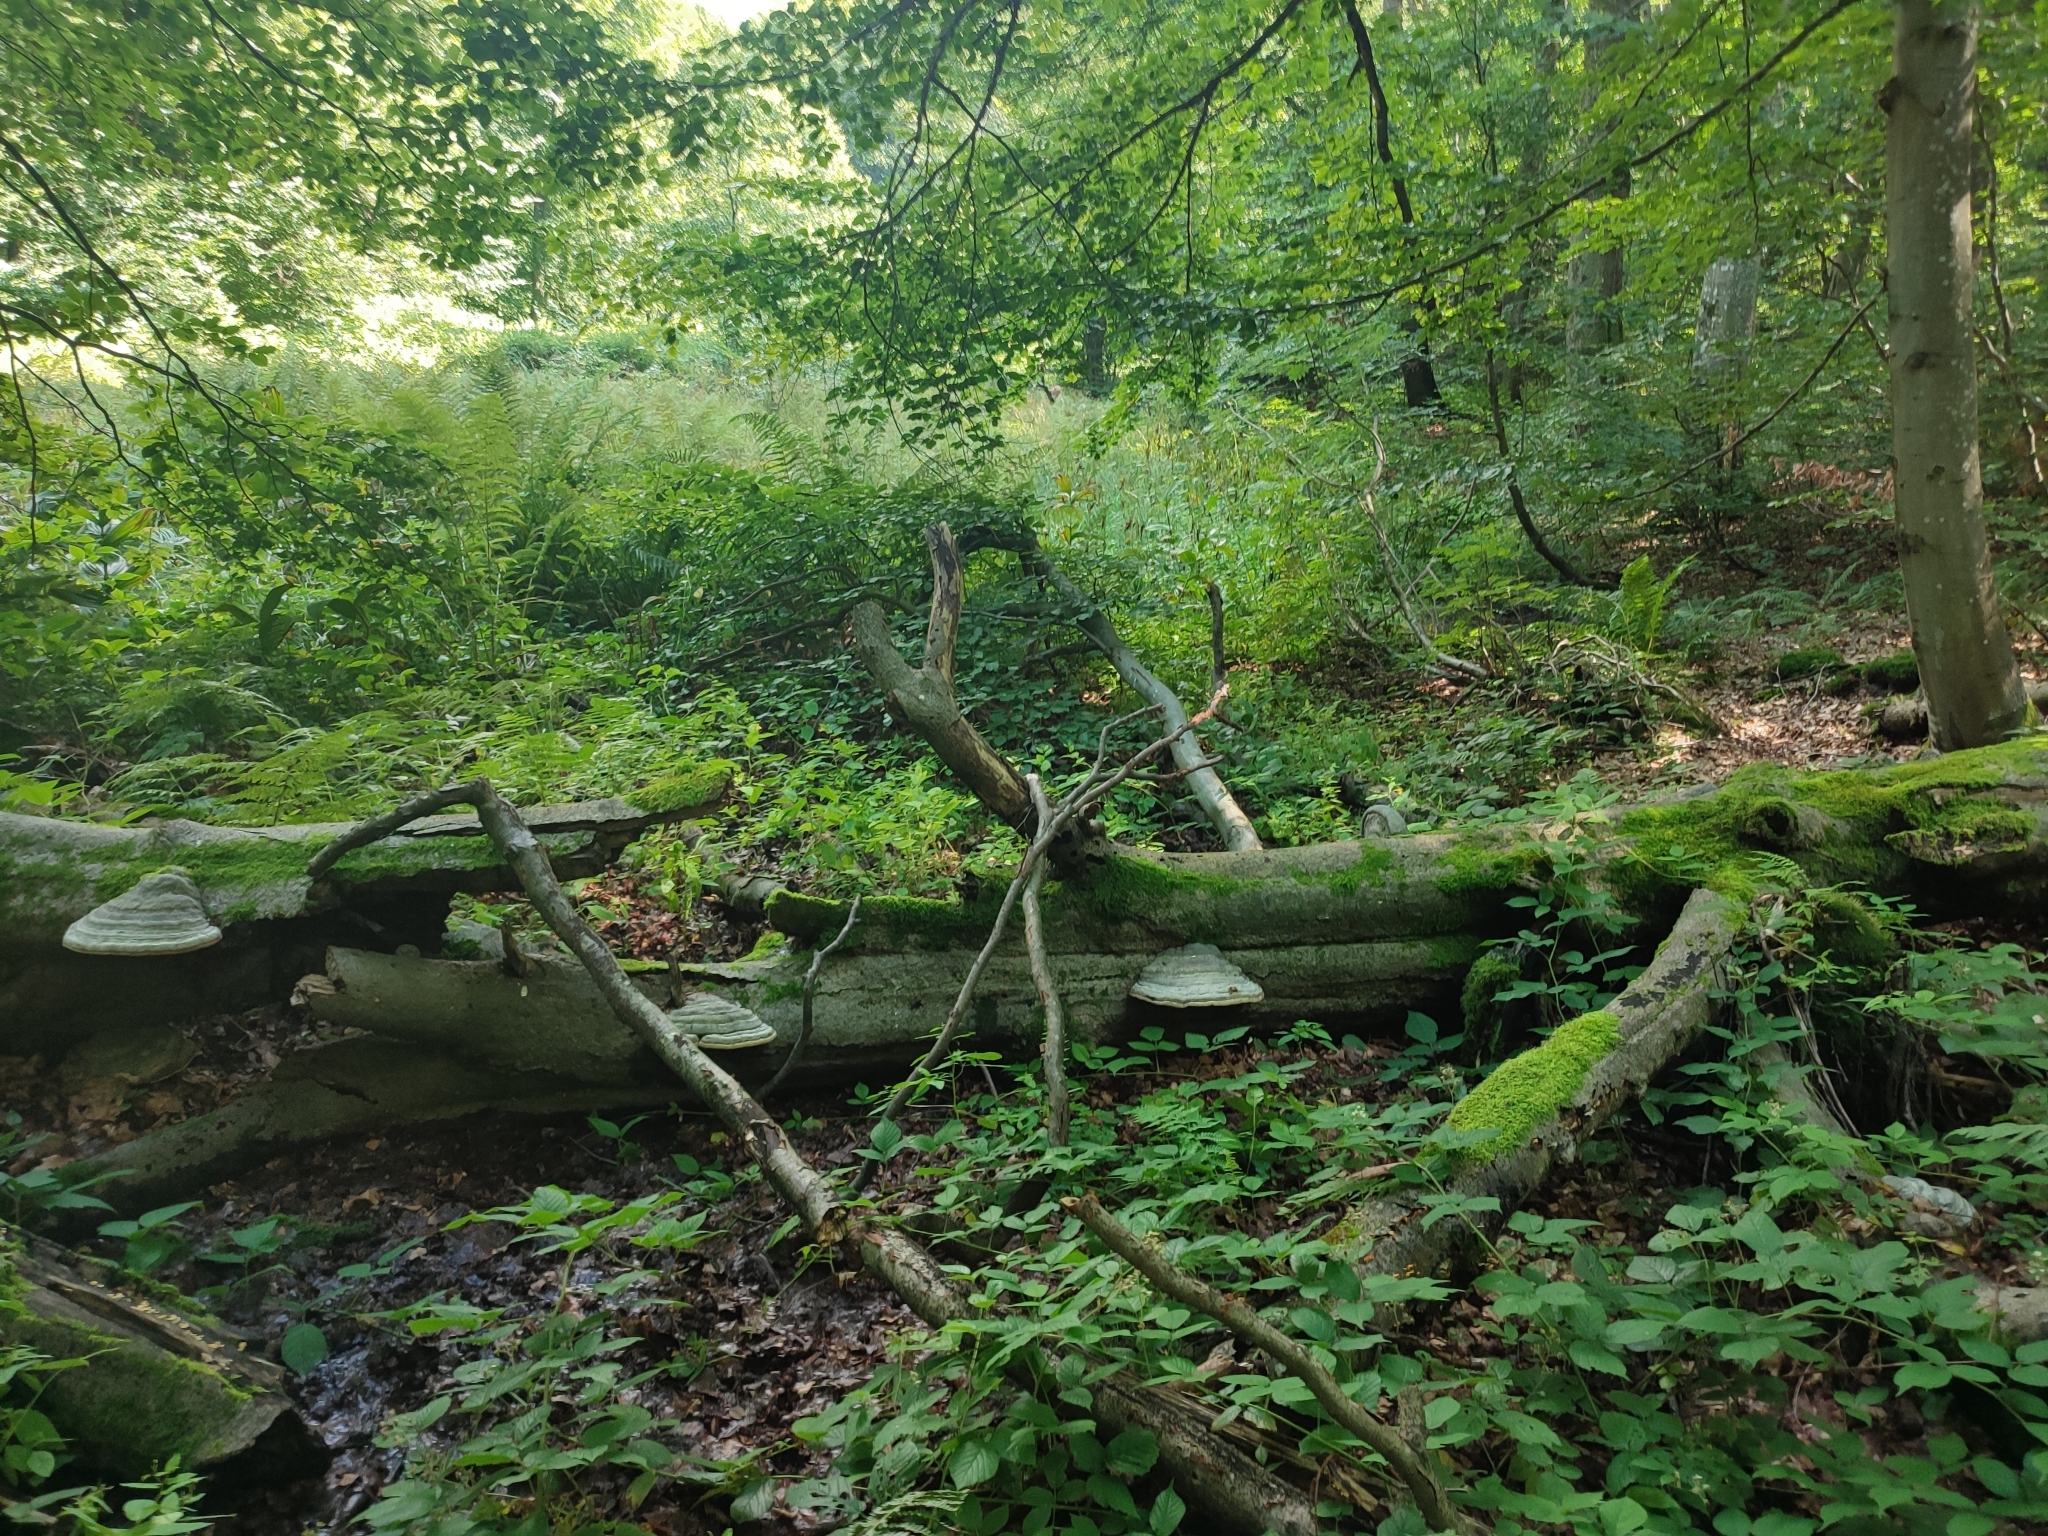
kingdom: Plantae
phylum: Tracheophyta
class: Magnoliopsida
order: Fagales
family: Fagaceae
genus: Fagus
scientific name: Fagus sylvatica
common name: Beech
